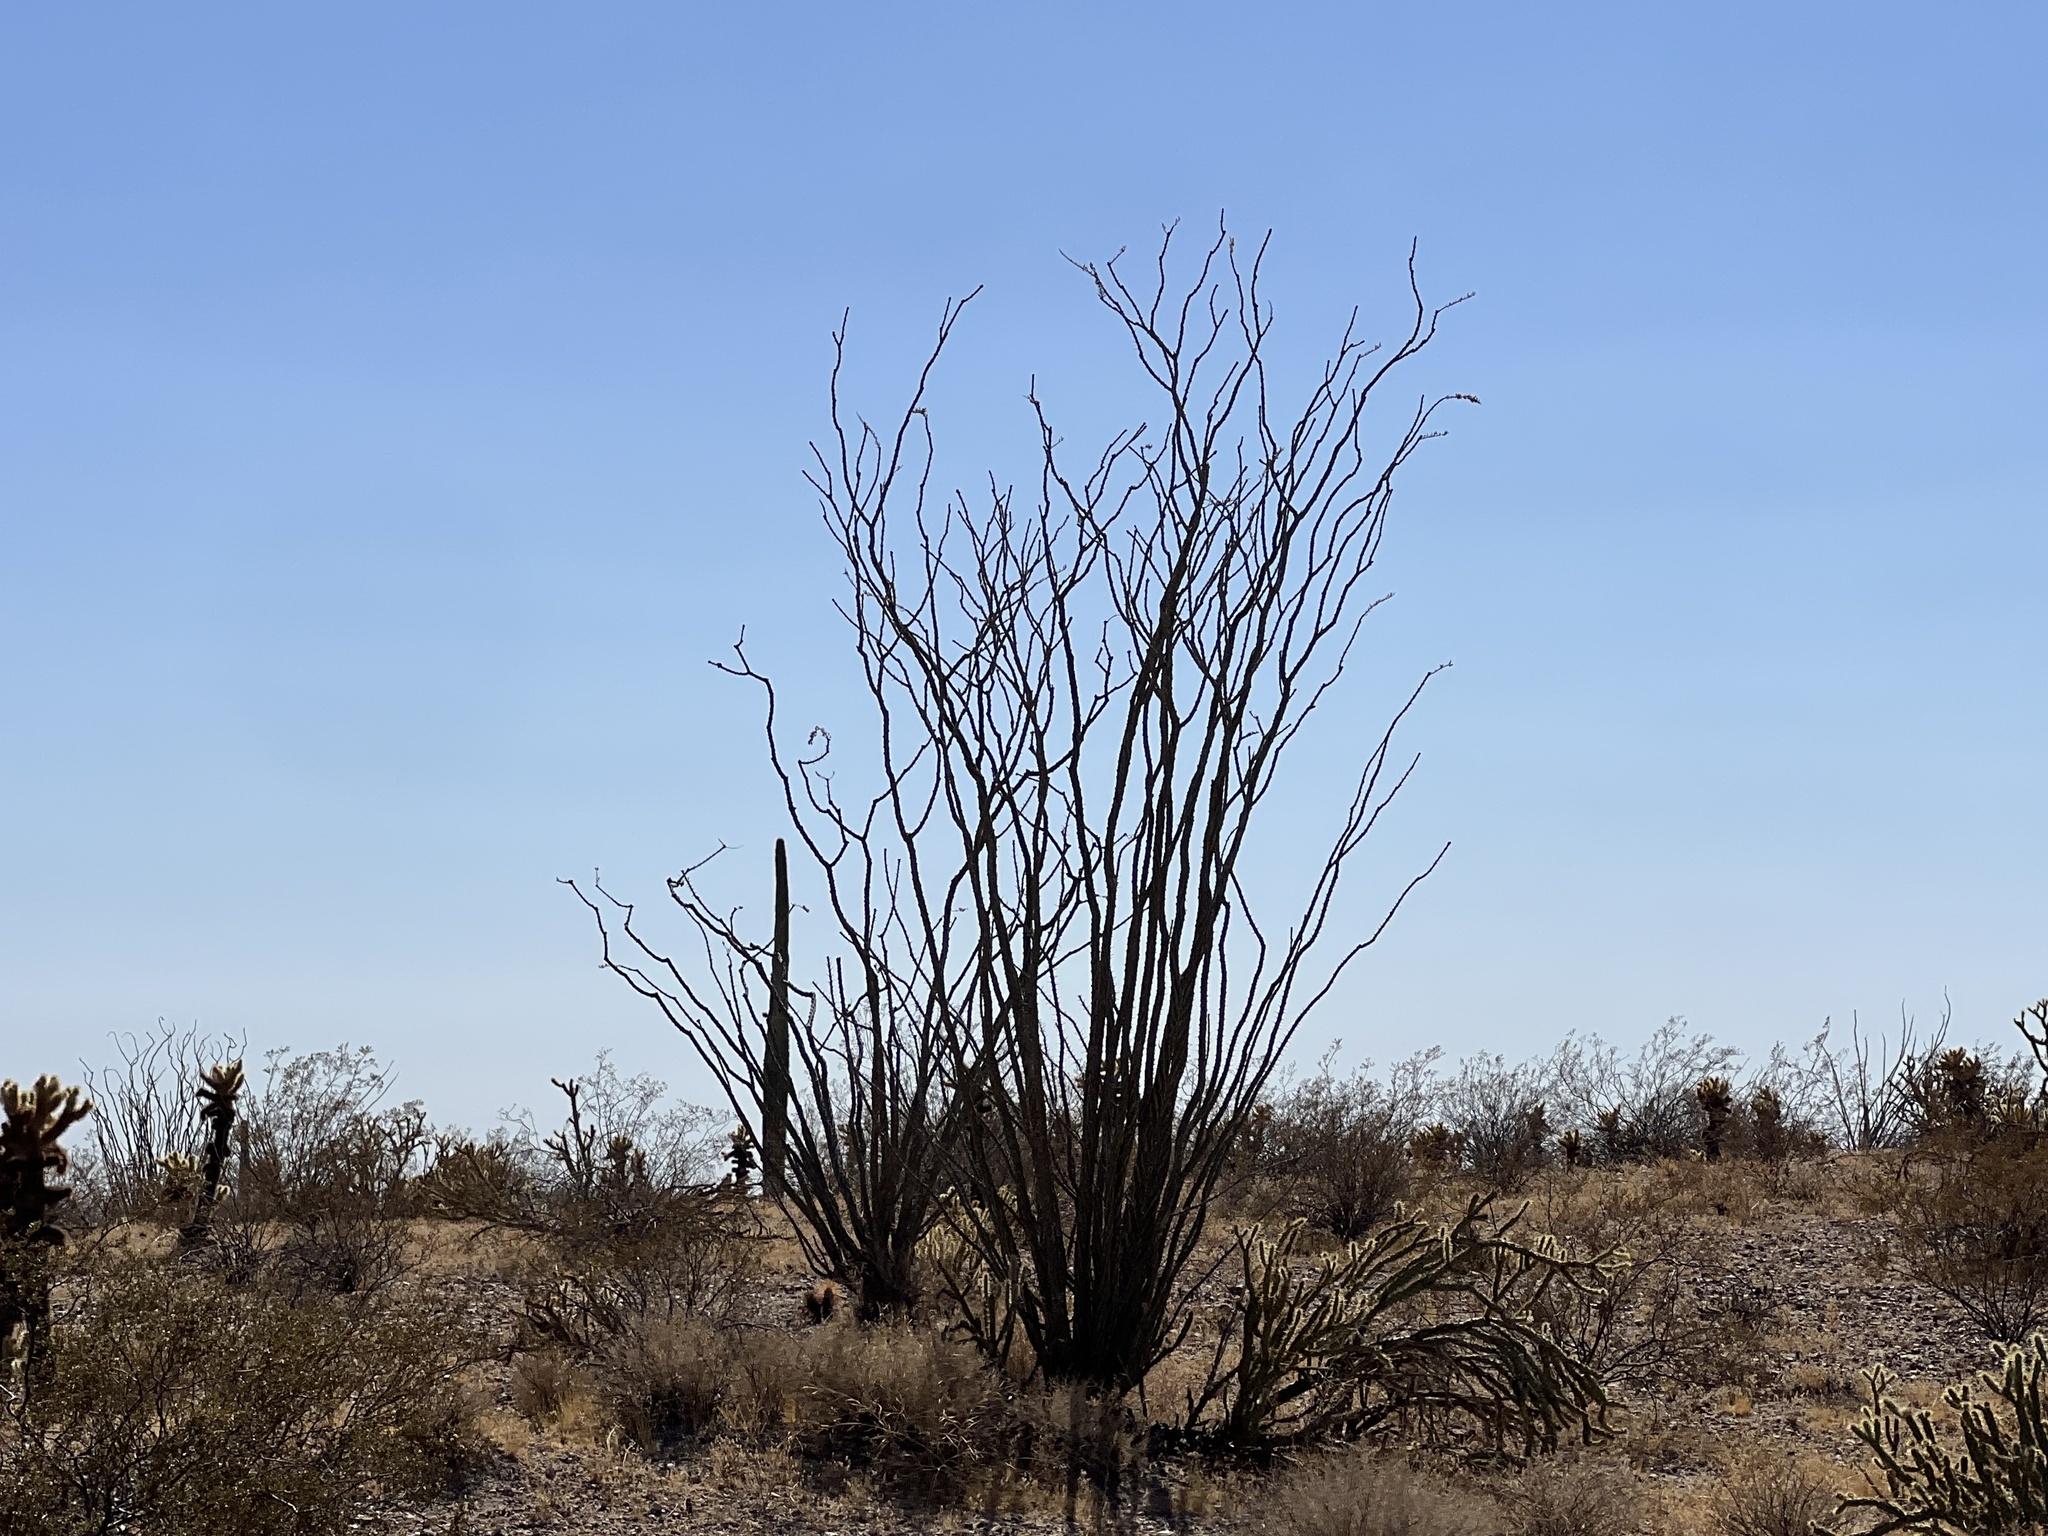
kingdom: Plantae
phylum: Tracheophyta
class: Magnoliopsida
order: Ericales
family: Fouquieriaceae
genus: Fouquieria
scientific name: Fouquieria splendens
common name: Vine-cactus
